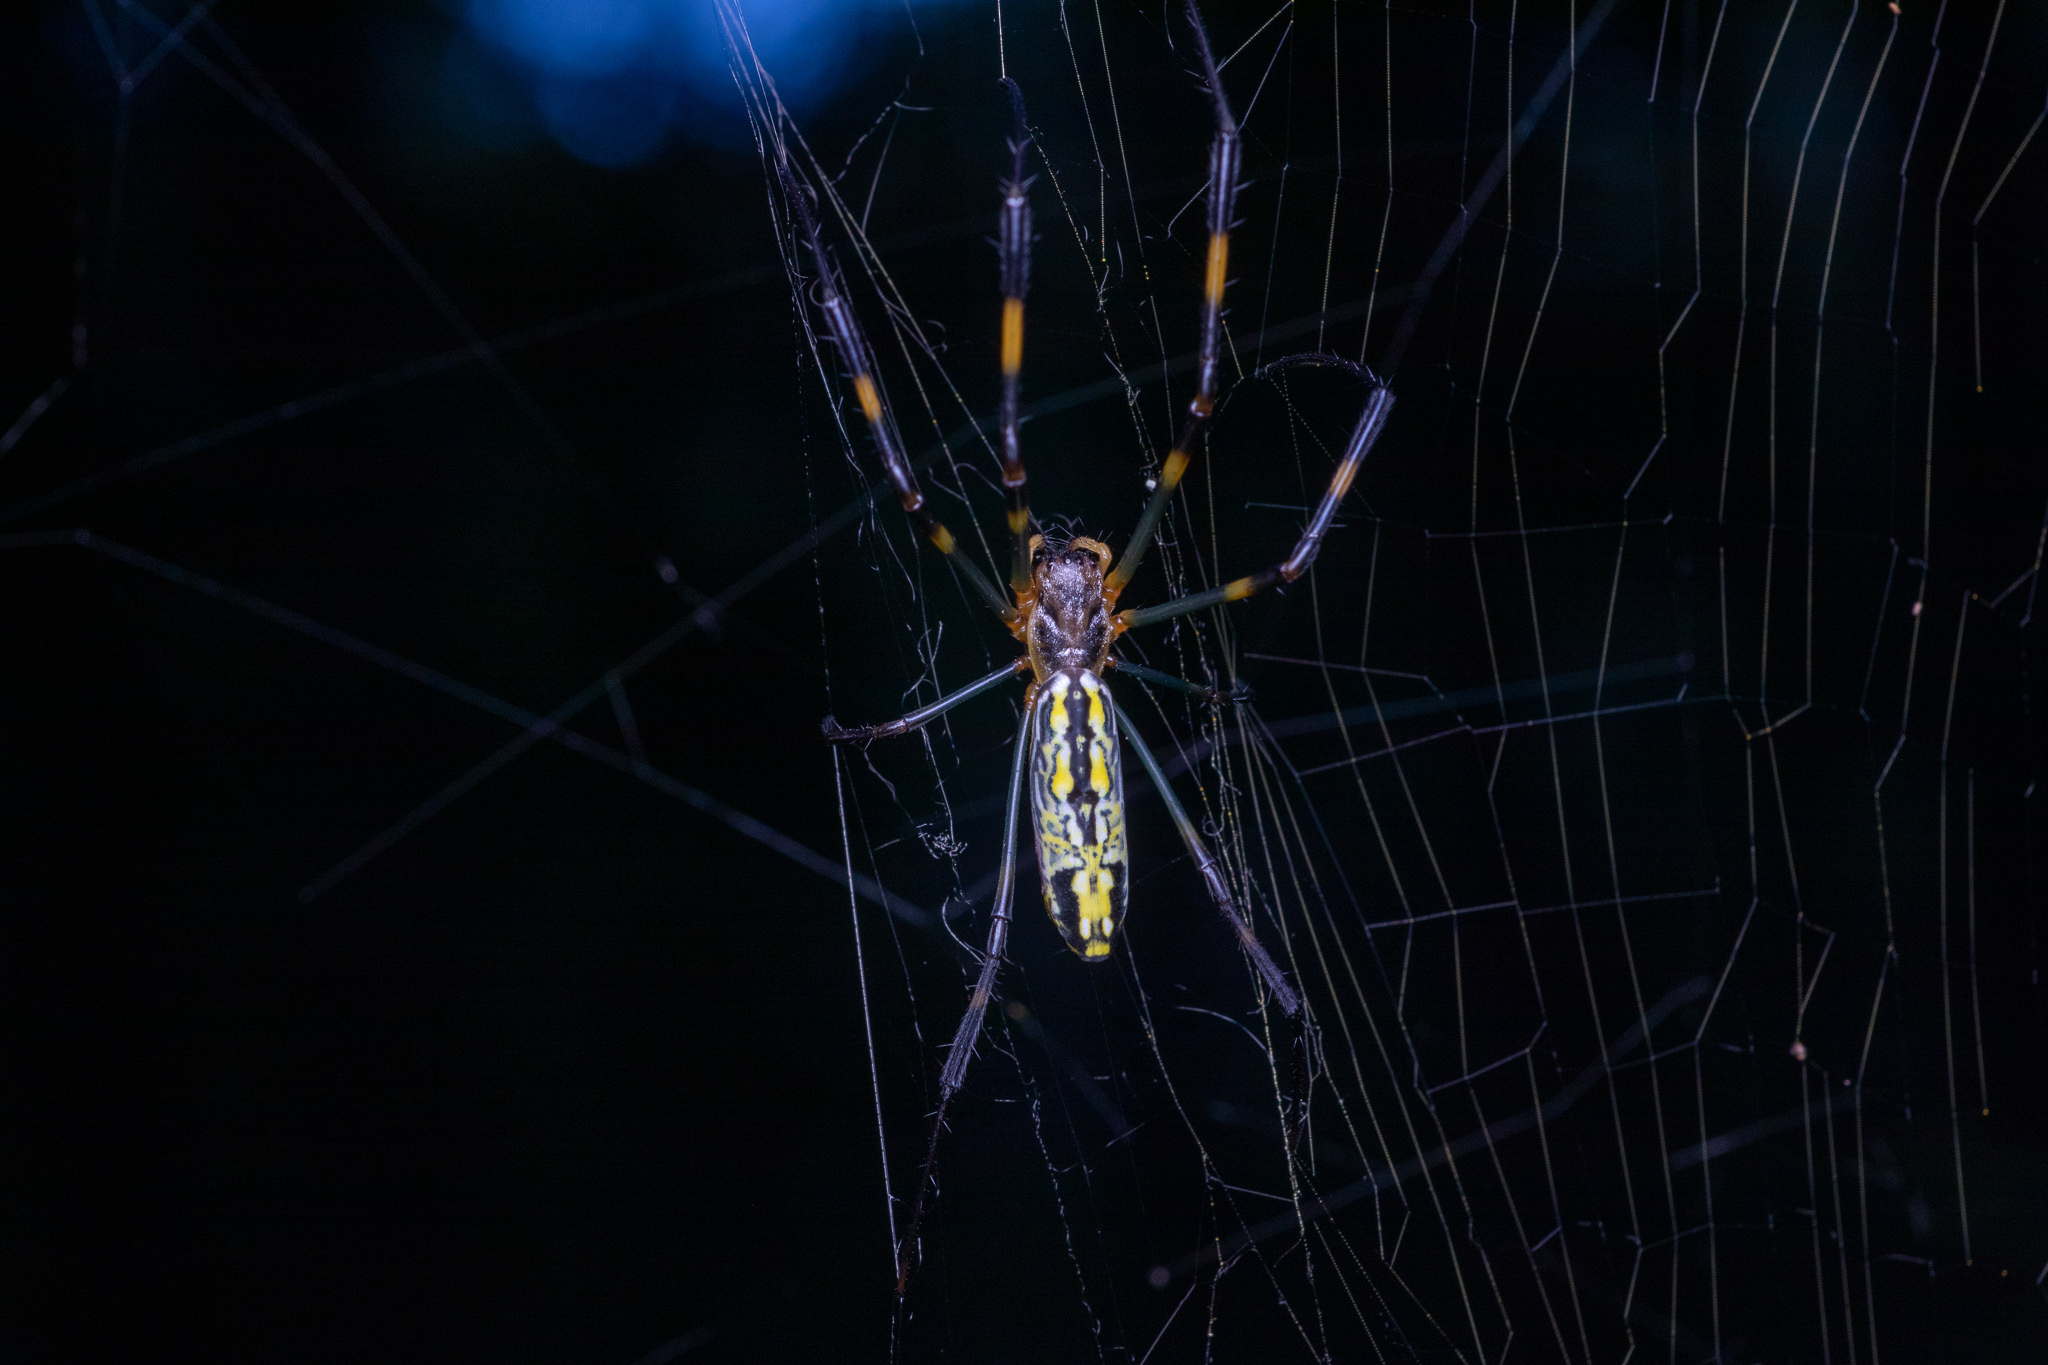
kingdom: Animalia
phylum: Arthropoda
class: Arachnida
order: Araneae
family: Araneidae
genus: Trichonephila
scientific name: Trichonephila clavata
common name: Jorō spider
